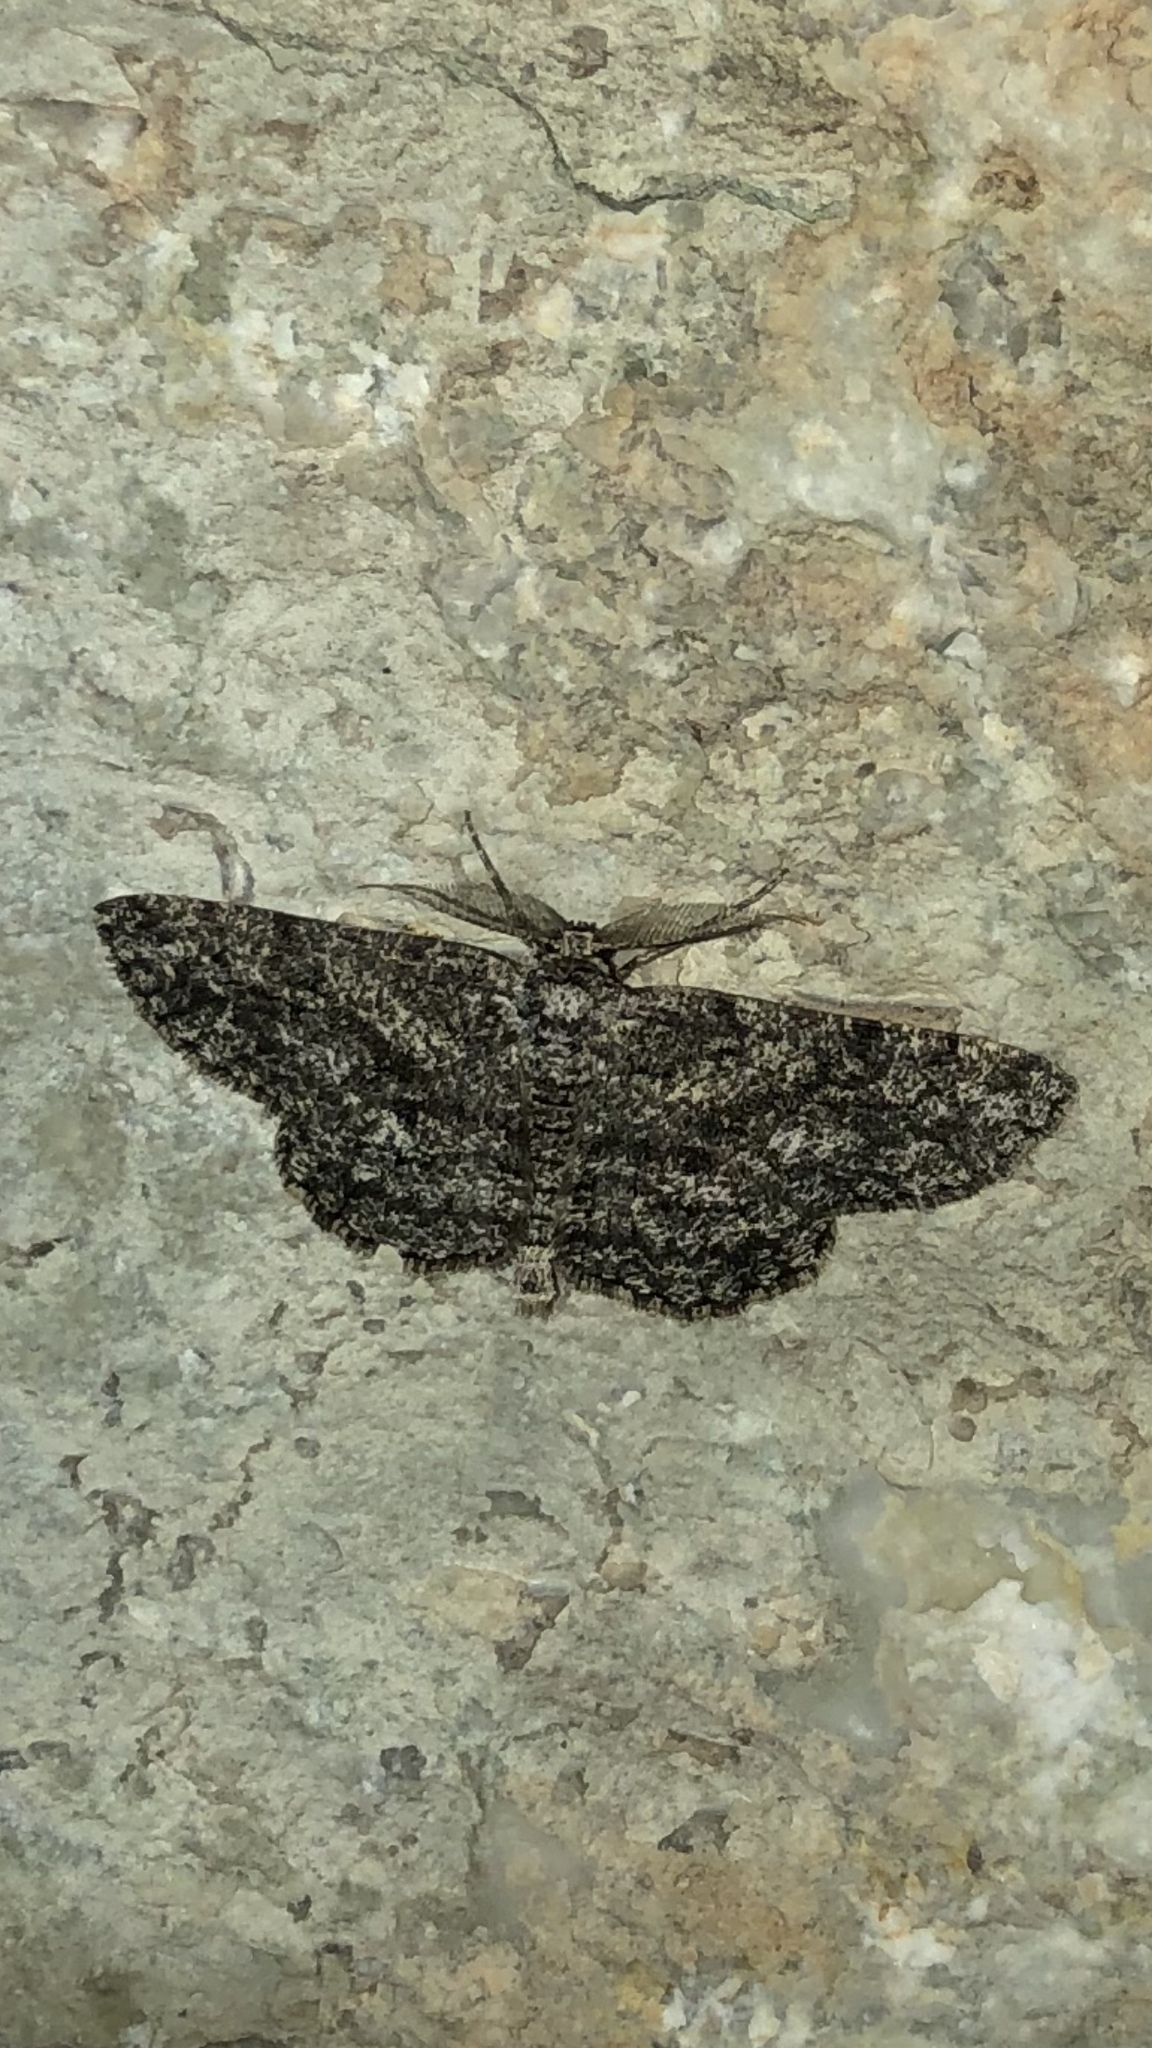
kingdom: Animalia
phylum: Arthropoda
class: Insecta
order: Lepidoptera
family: Geometridae
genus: Hypomecis
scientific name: Hypomecis umbrosaria
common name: Umber moth
